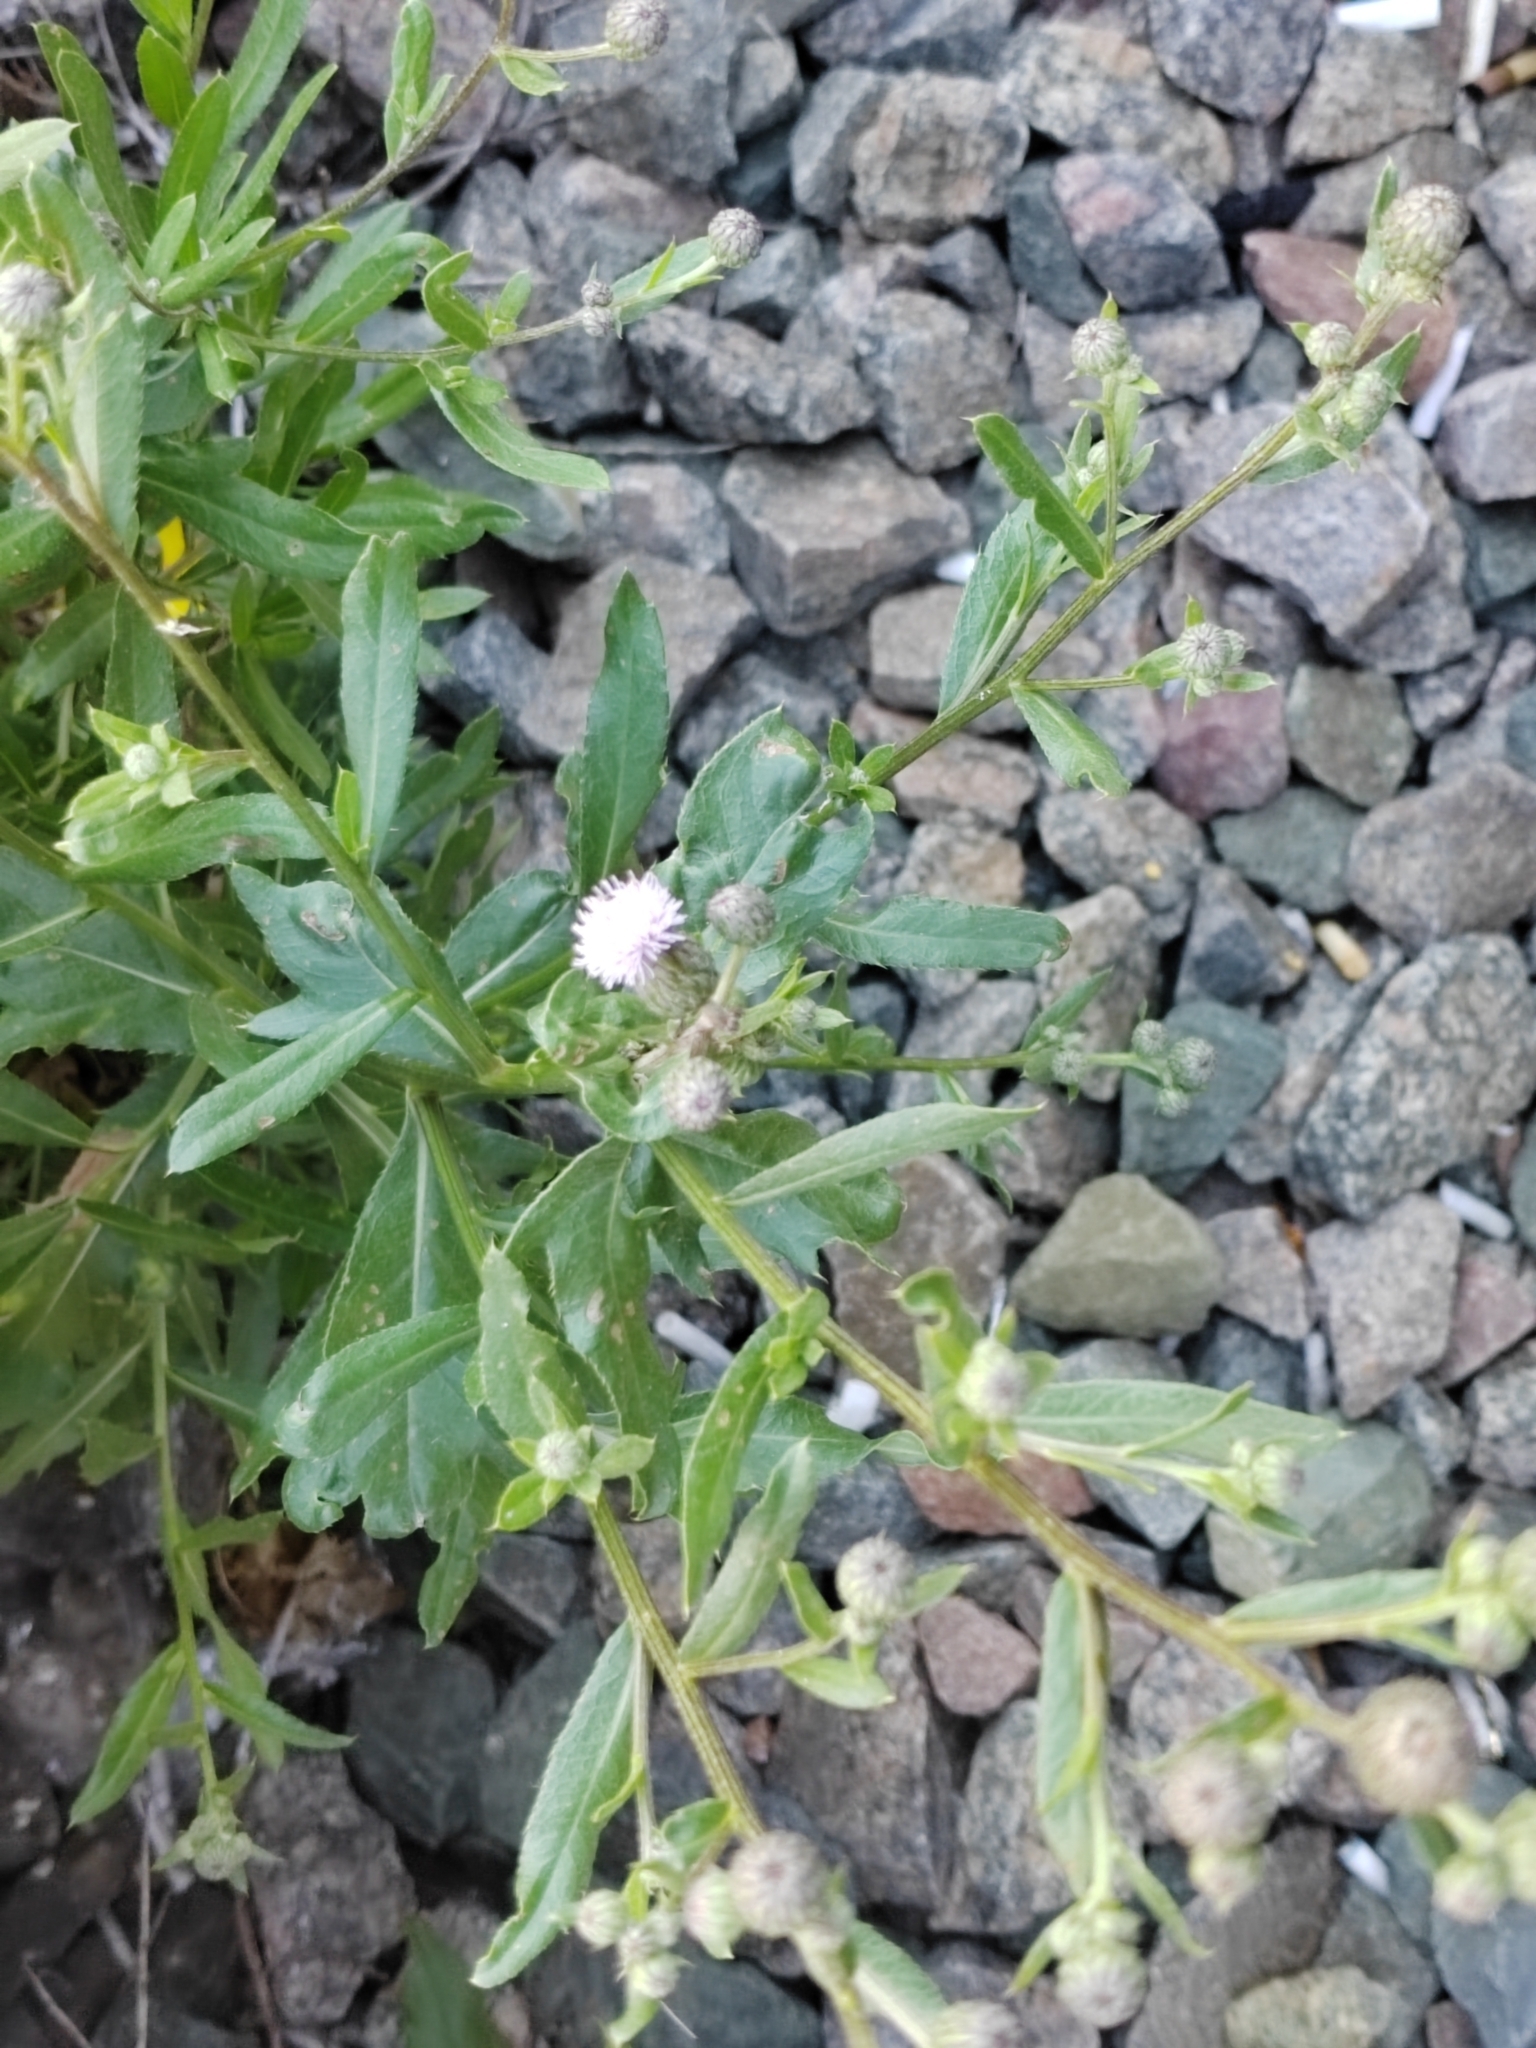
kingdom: Plantae
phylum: Tracheophyta
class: Magnoliopsida
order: Asterales
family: Asteraceae
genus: Cirsium
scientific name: Cirsium arvense
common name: Creeping thistle
